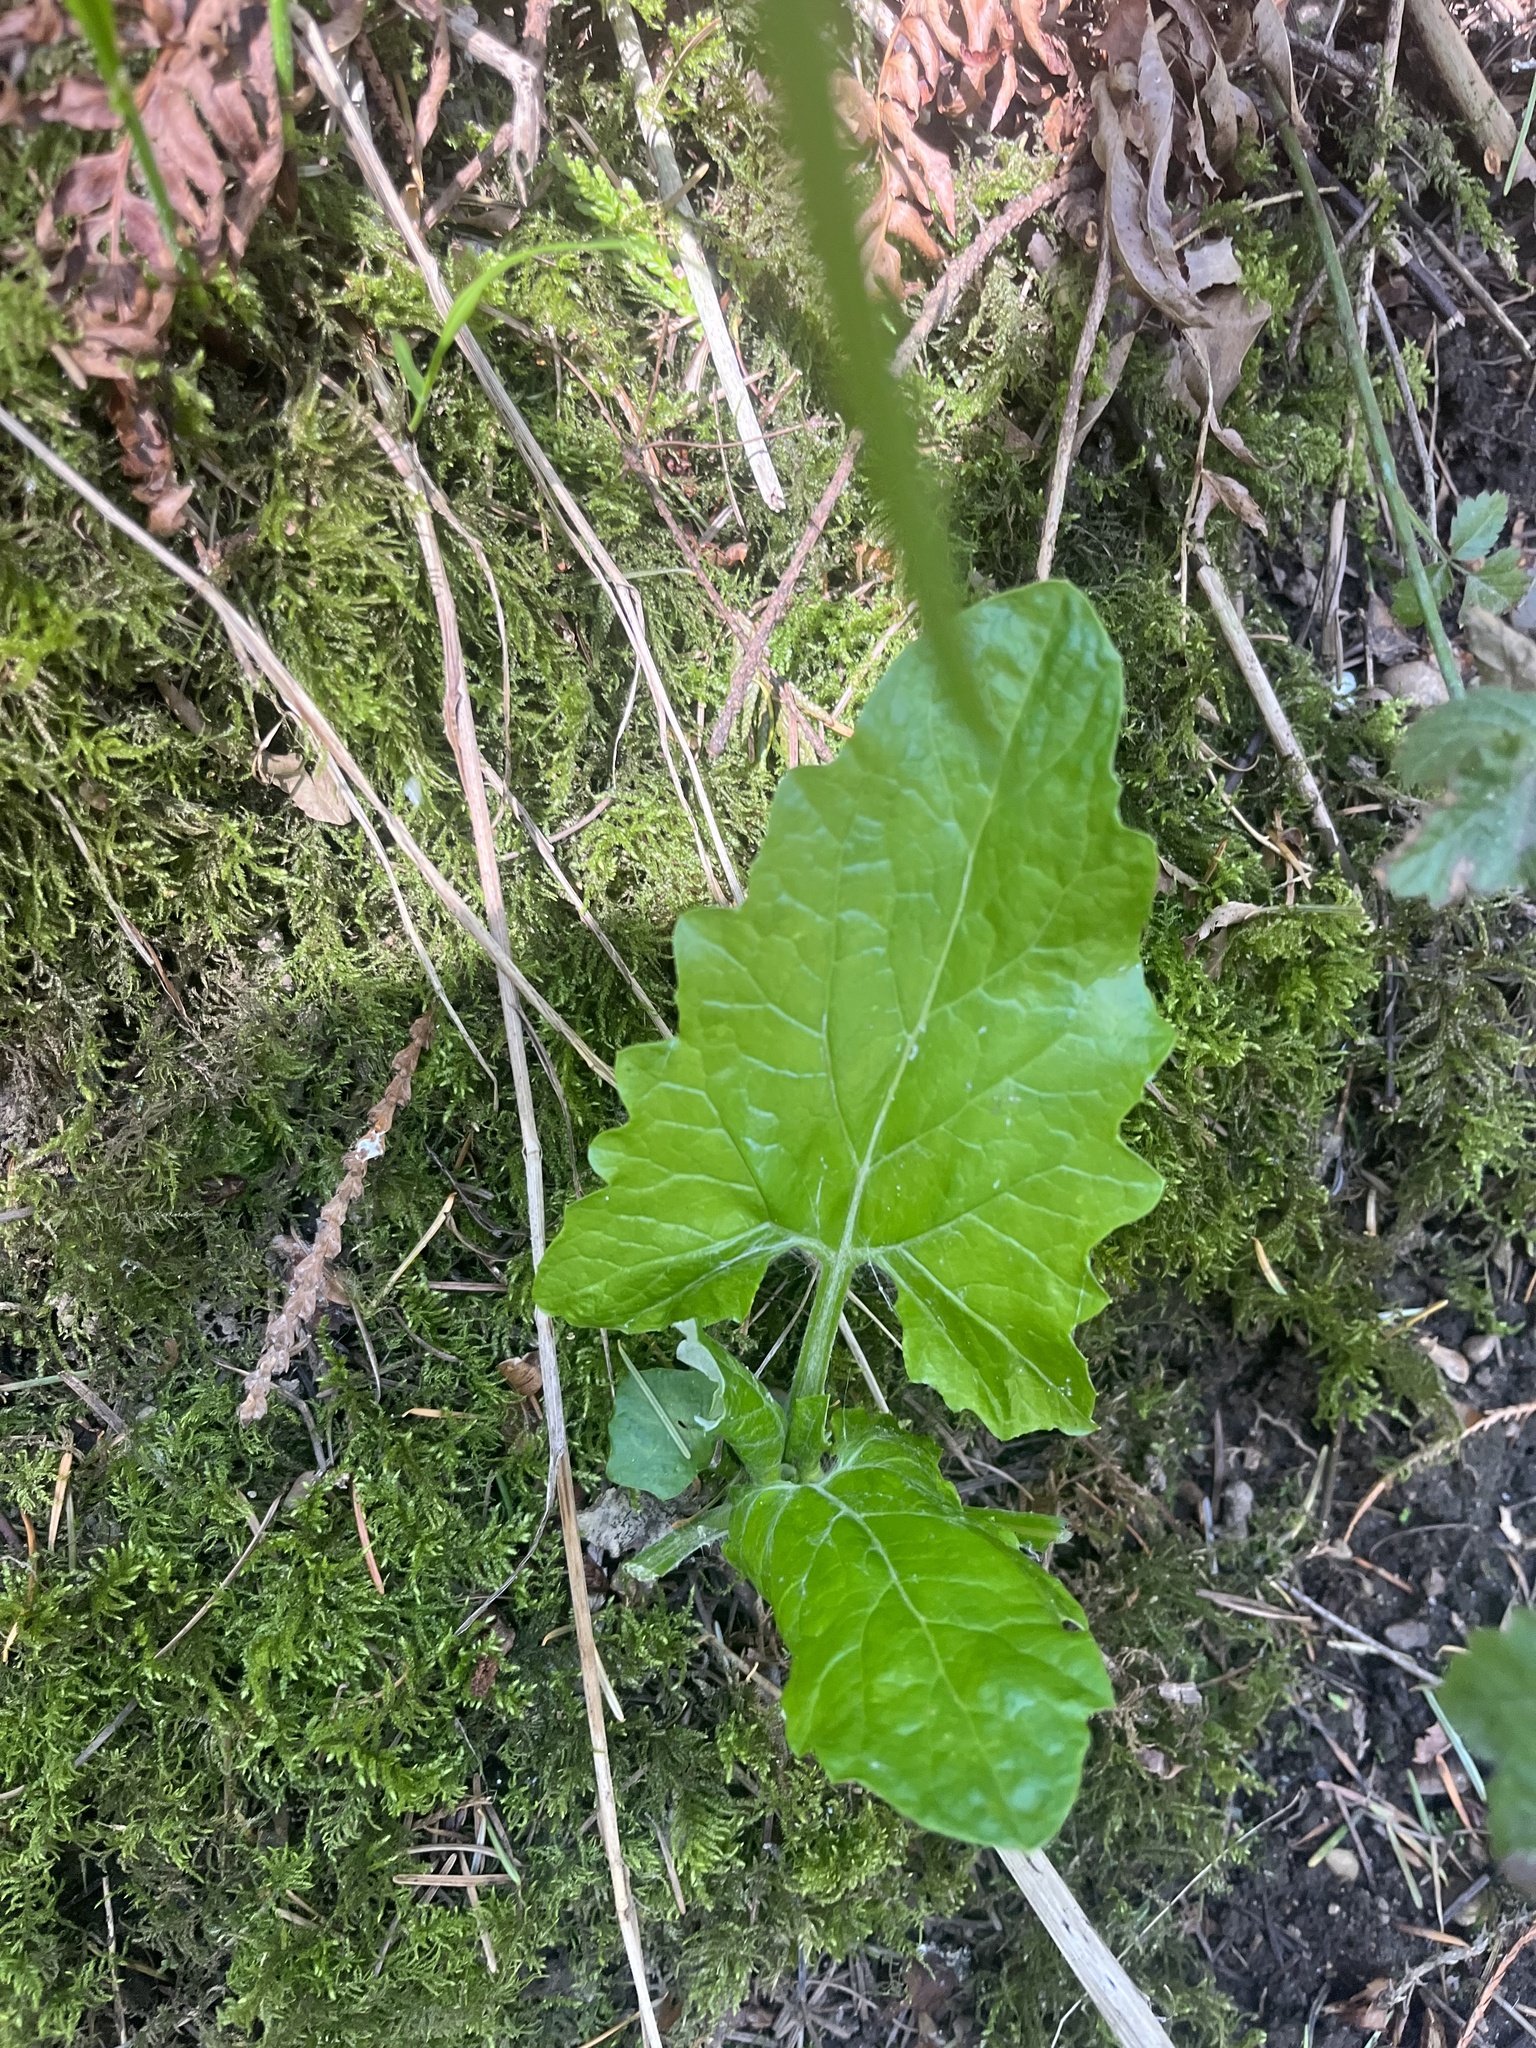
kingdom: Plantae
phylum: Tracheophyta
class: Magnoliopsida
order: Asterales
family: Asteraceae
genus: Adenocaulon
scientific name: Adenocaulon bicolor
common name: Trailplant
